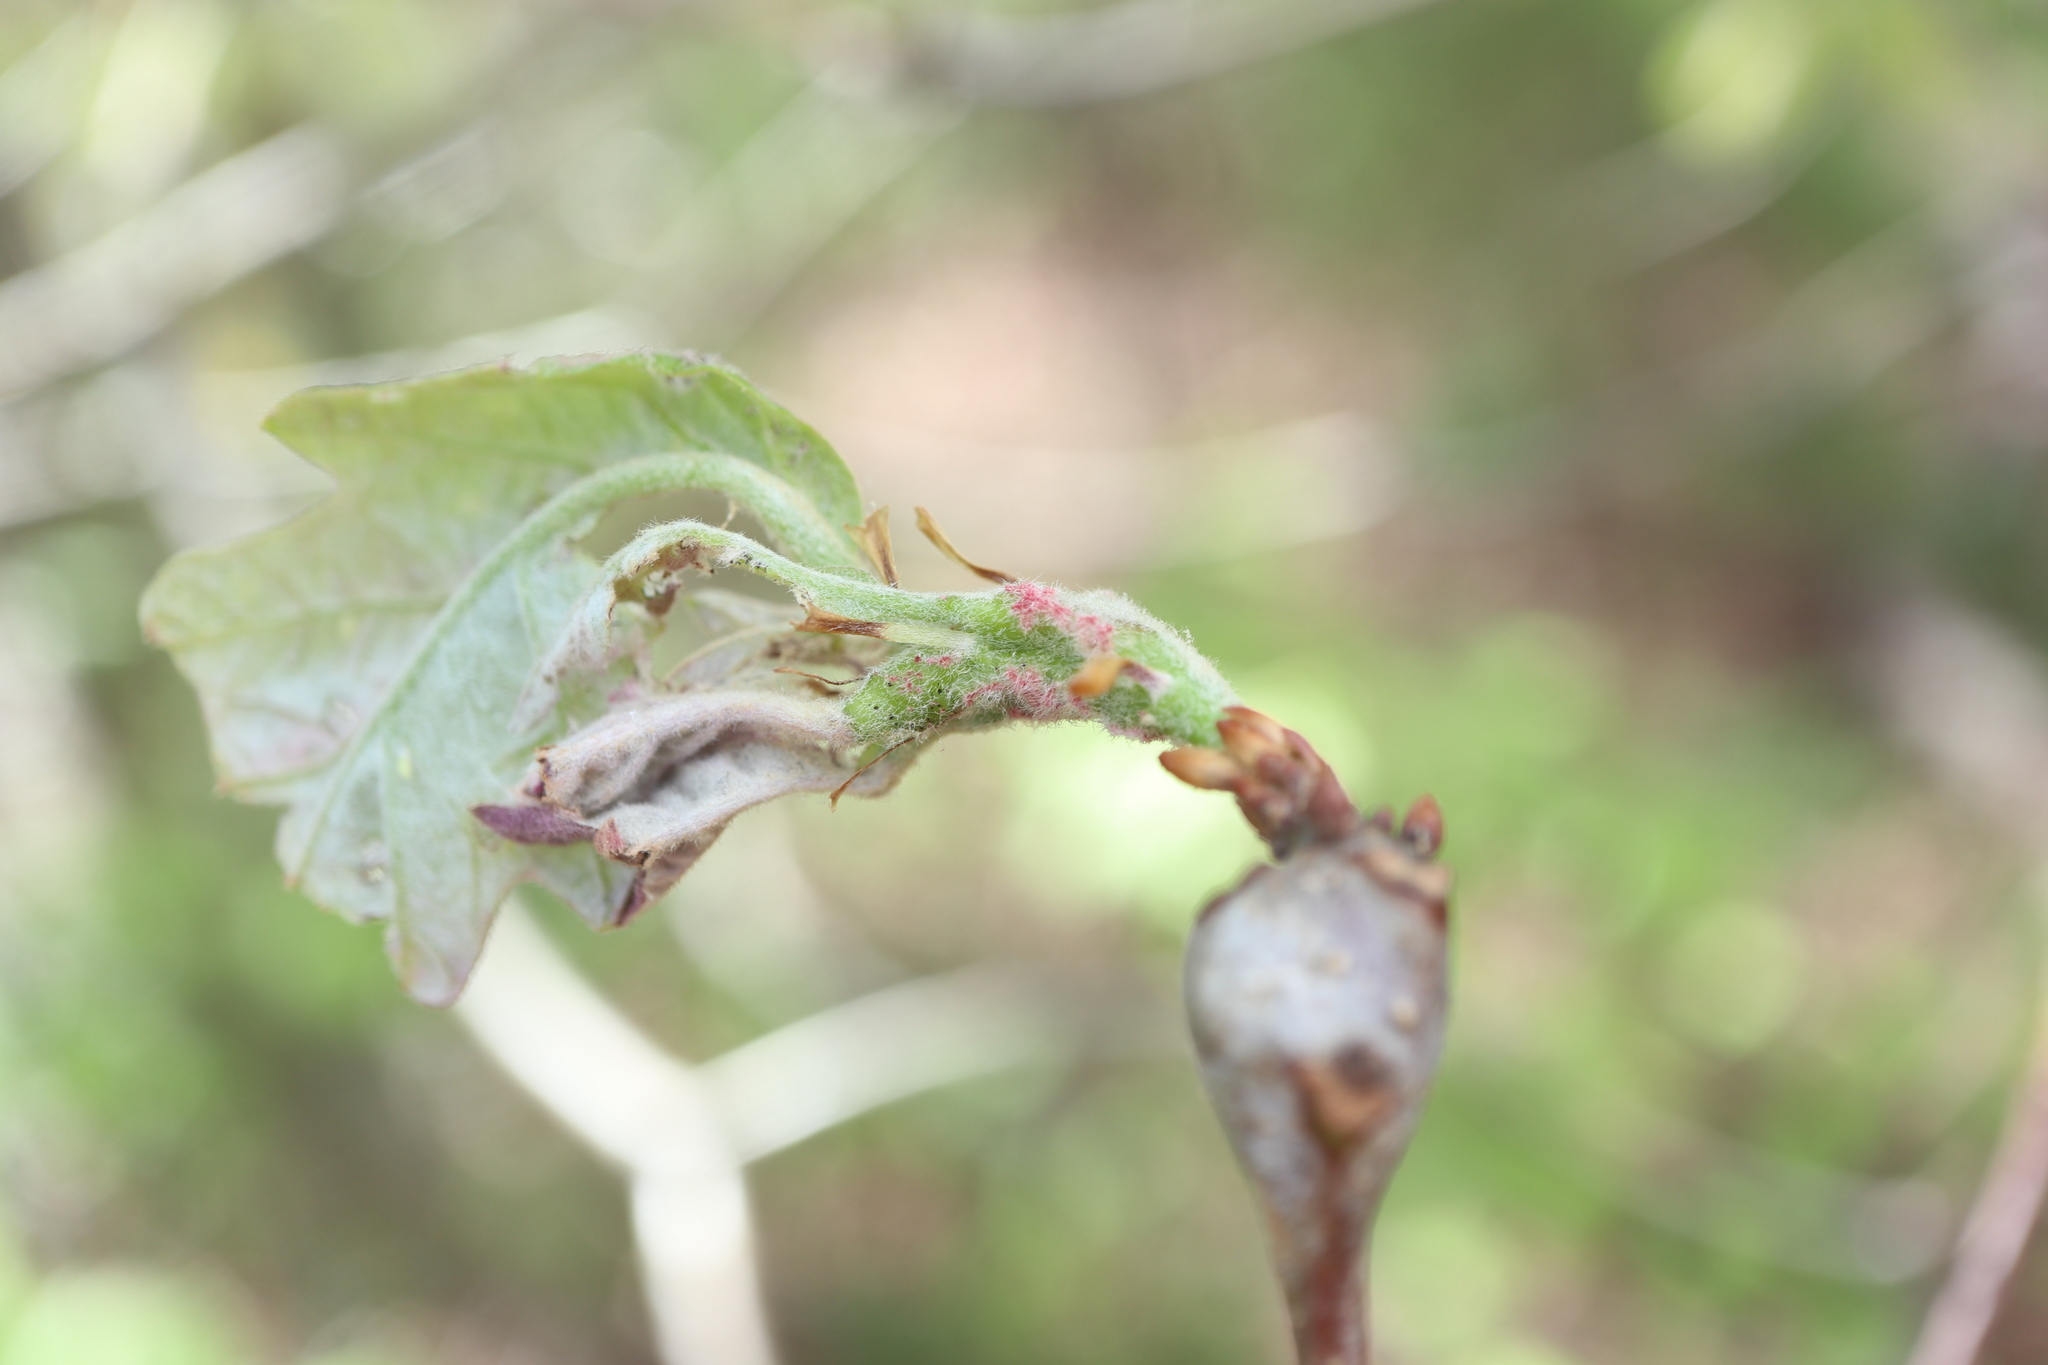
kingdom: Animalia
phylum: Arthropoda
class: Insecta
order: Hymenoptera
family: Cynipidae
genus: Neuroterus
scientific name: Neuroterus quercusbaccarum
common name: Common spangle gall
